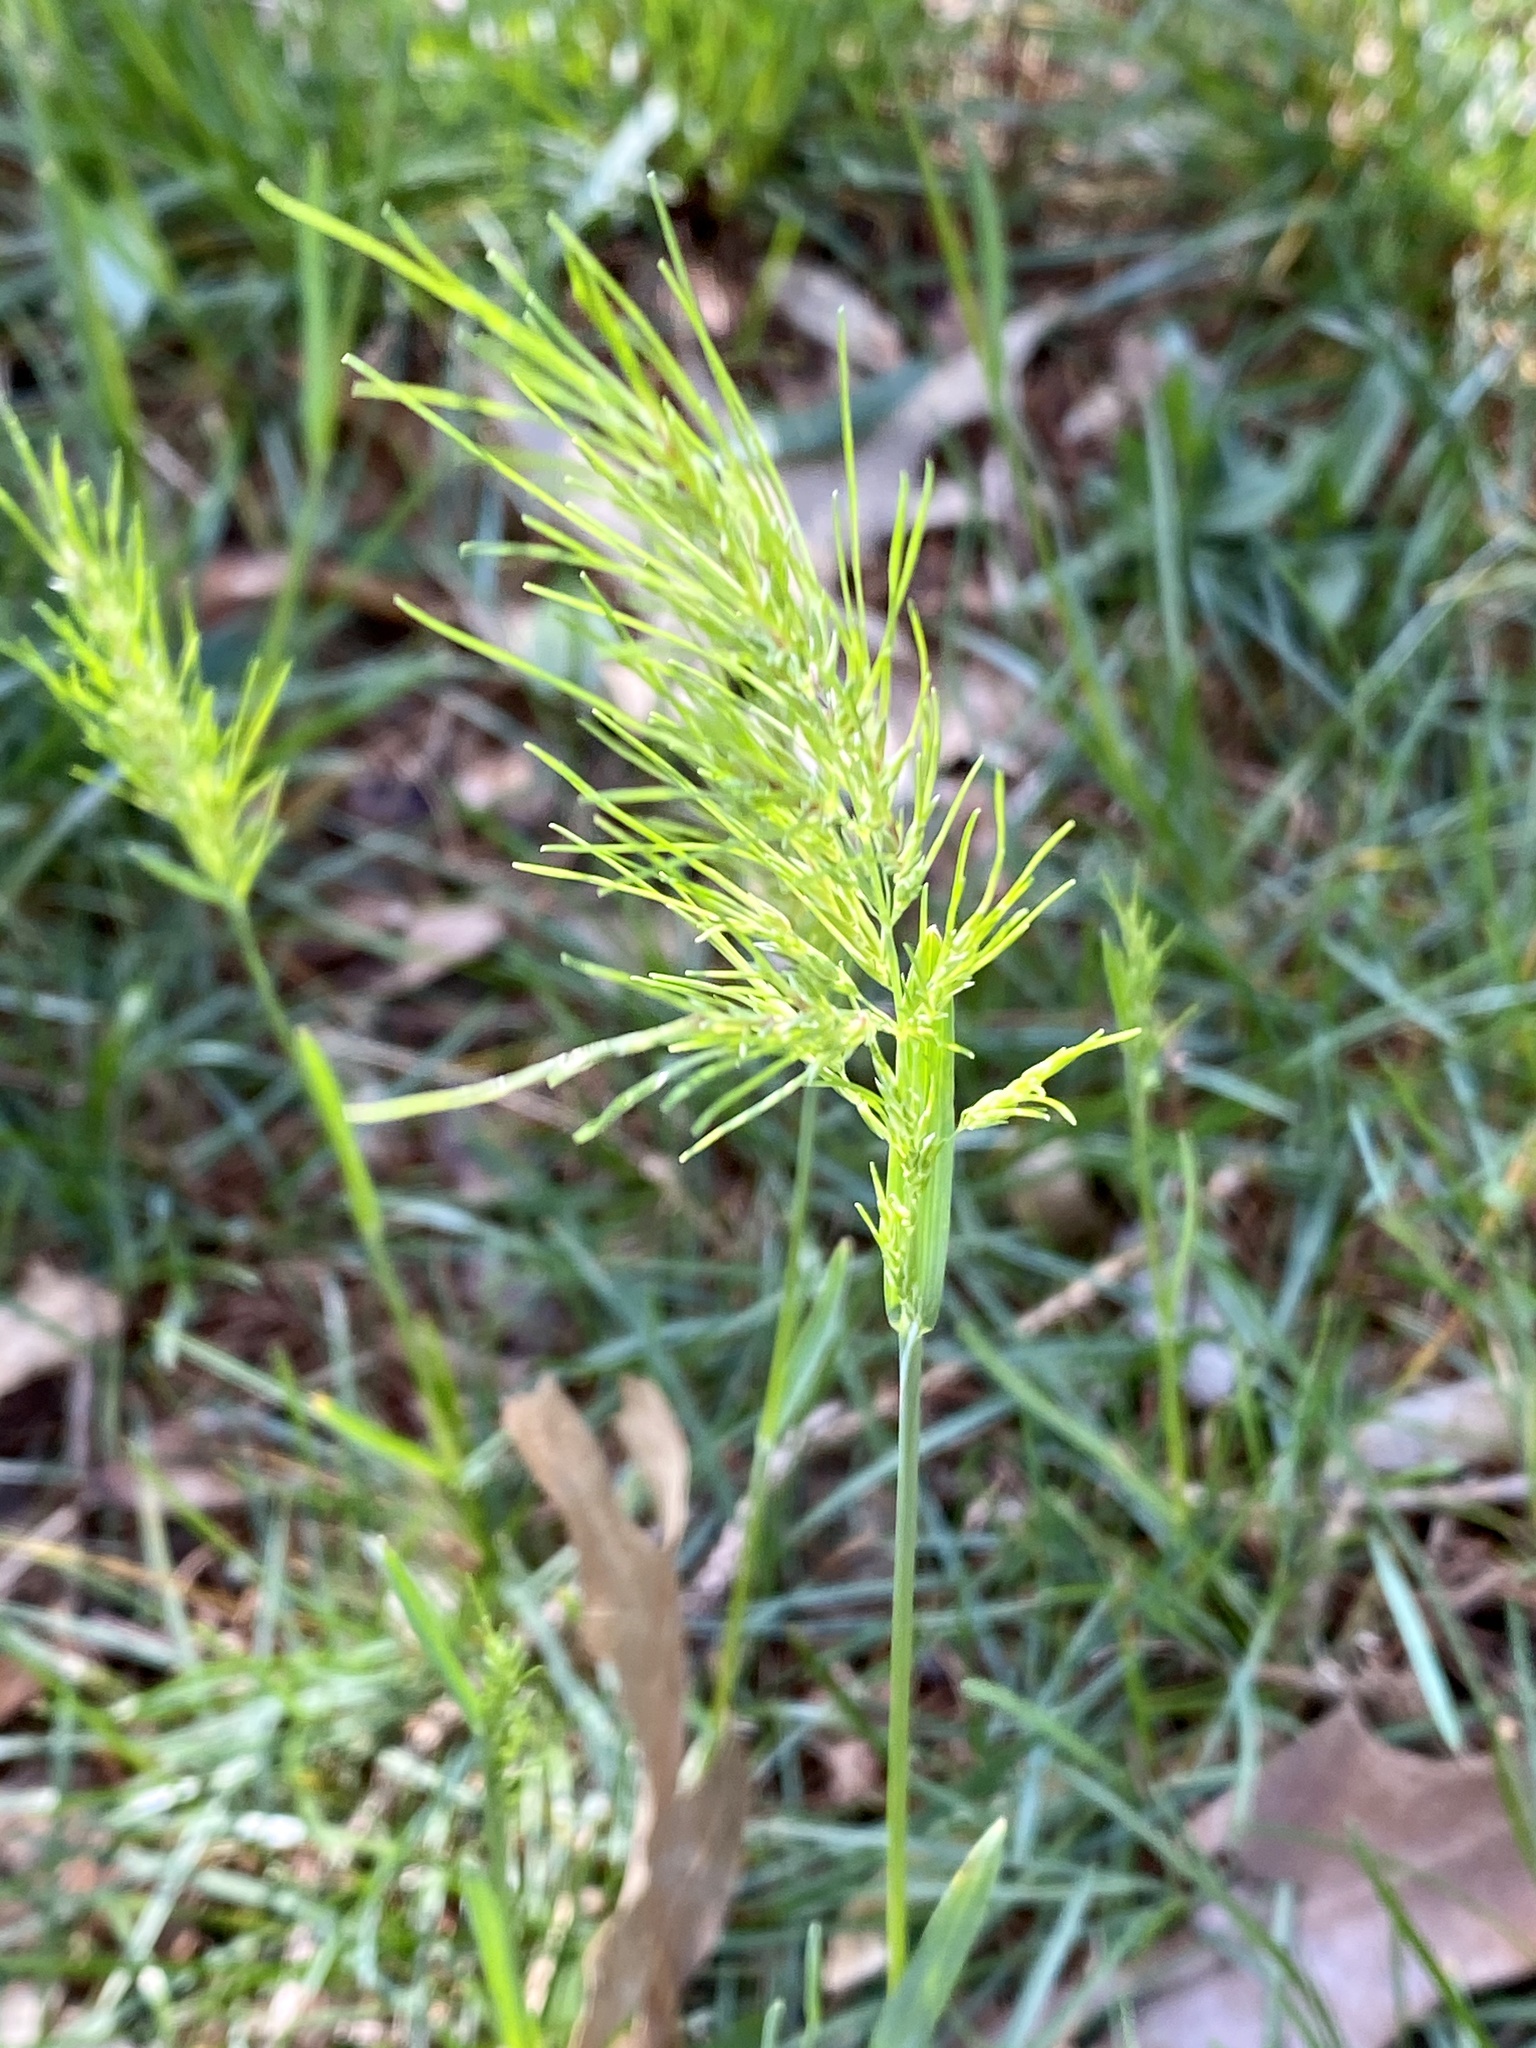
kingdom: Plantae
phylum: Tracheophyta
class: Liliopsida
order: Poales
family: Poaceae
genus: Poa
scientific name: Poa bulbosa
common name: Bulbous bluegrass
